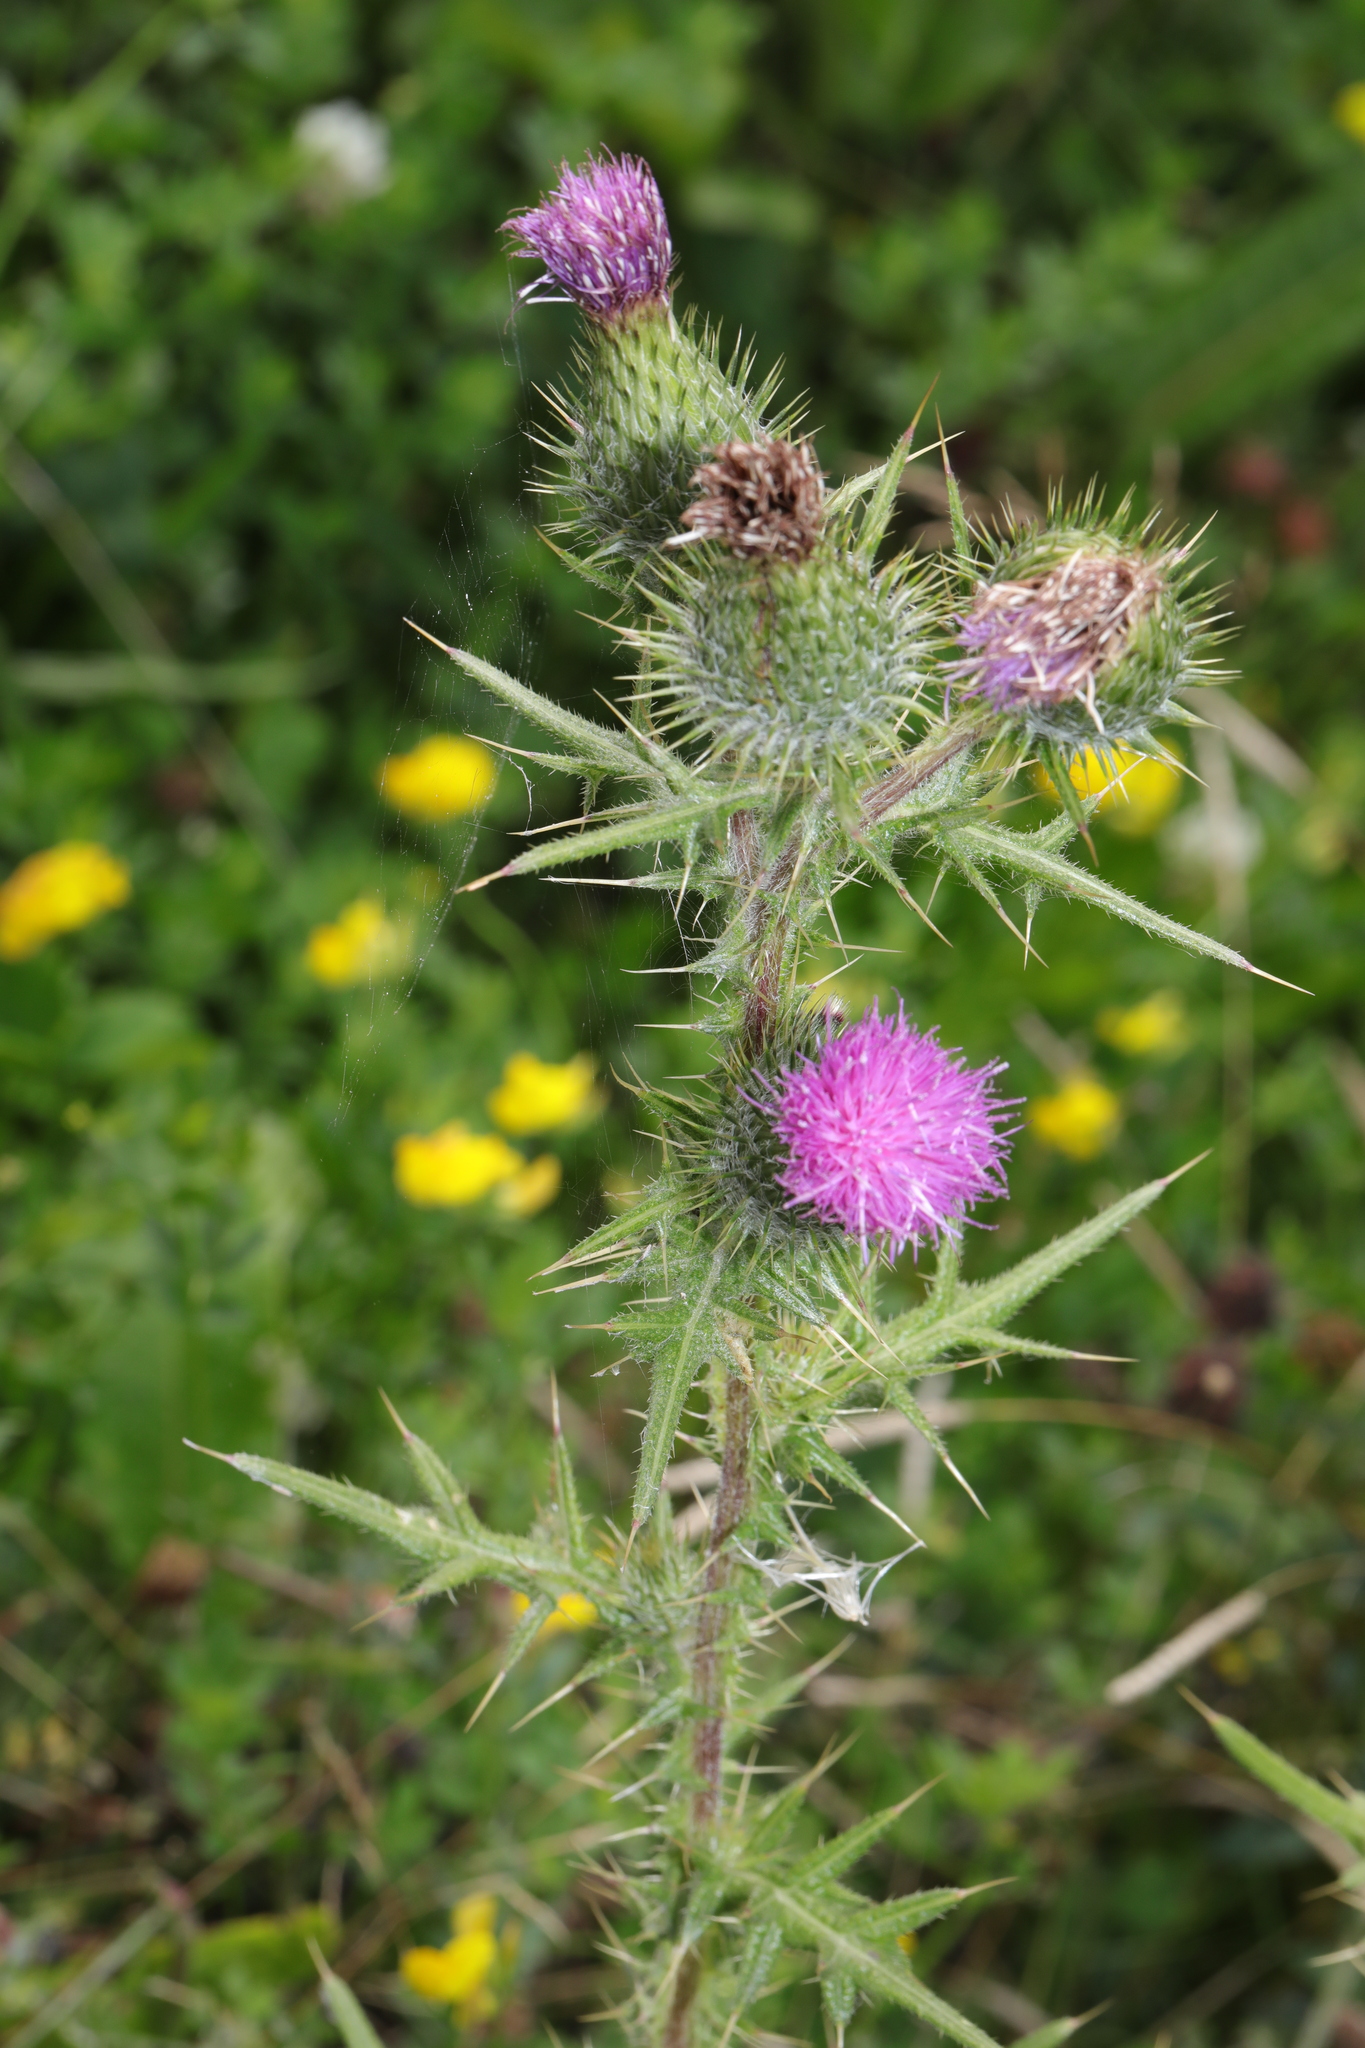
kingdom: Plantae
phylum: Tracheophyta
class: Magnoliopsida
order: Asterales
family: Asteraceae
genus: Cirsium
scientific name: Cirsium vulgare
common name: Bull thistle
